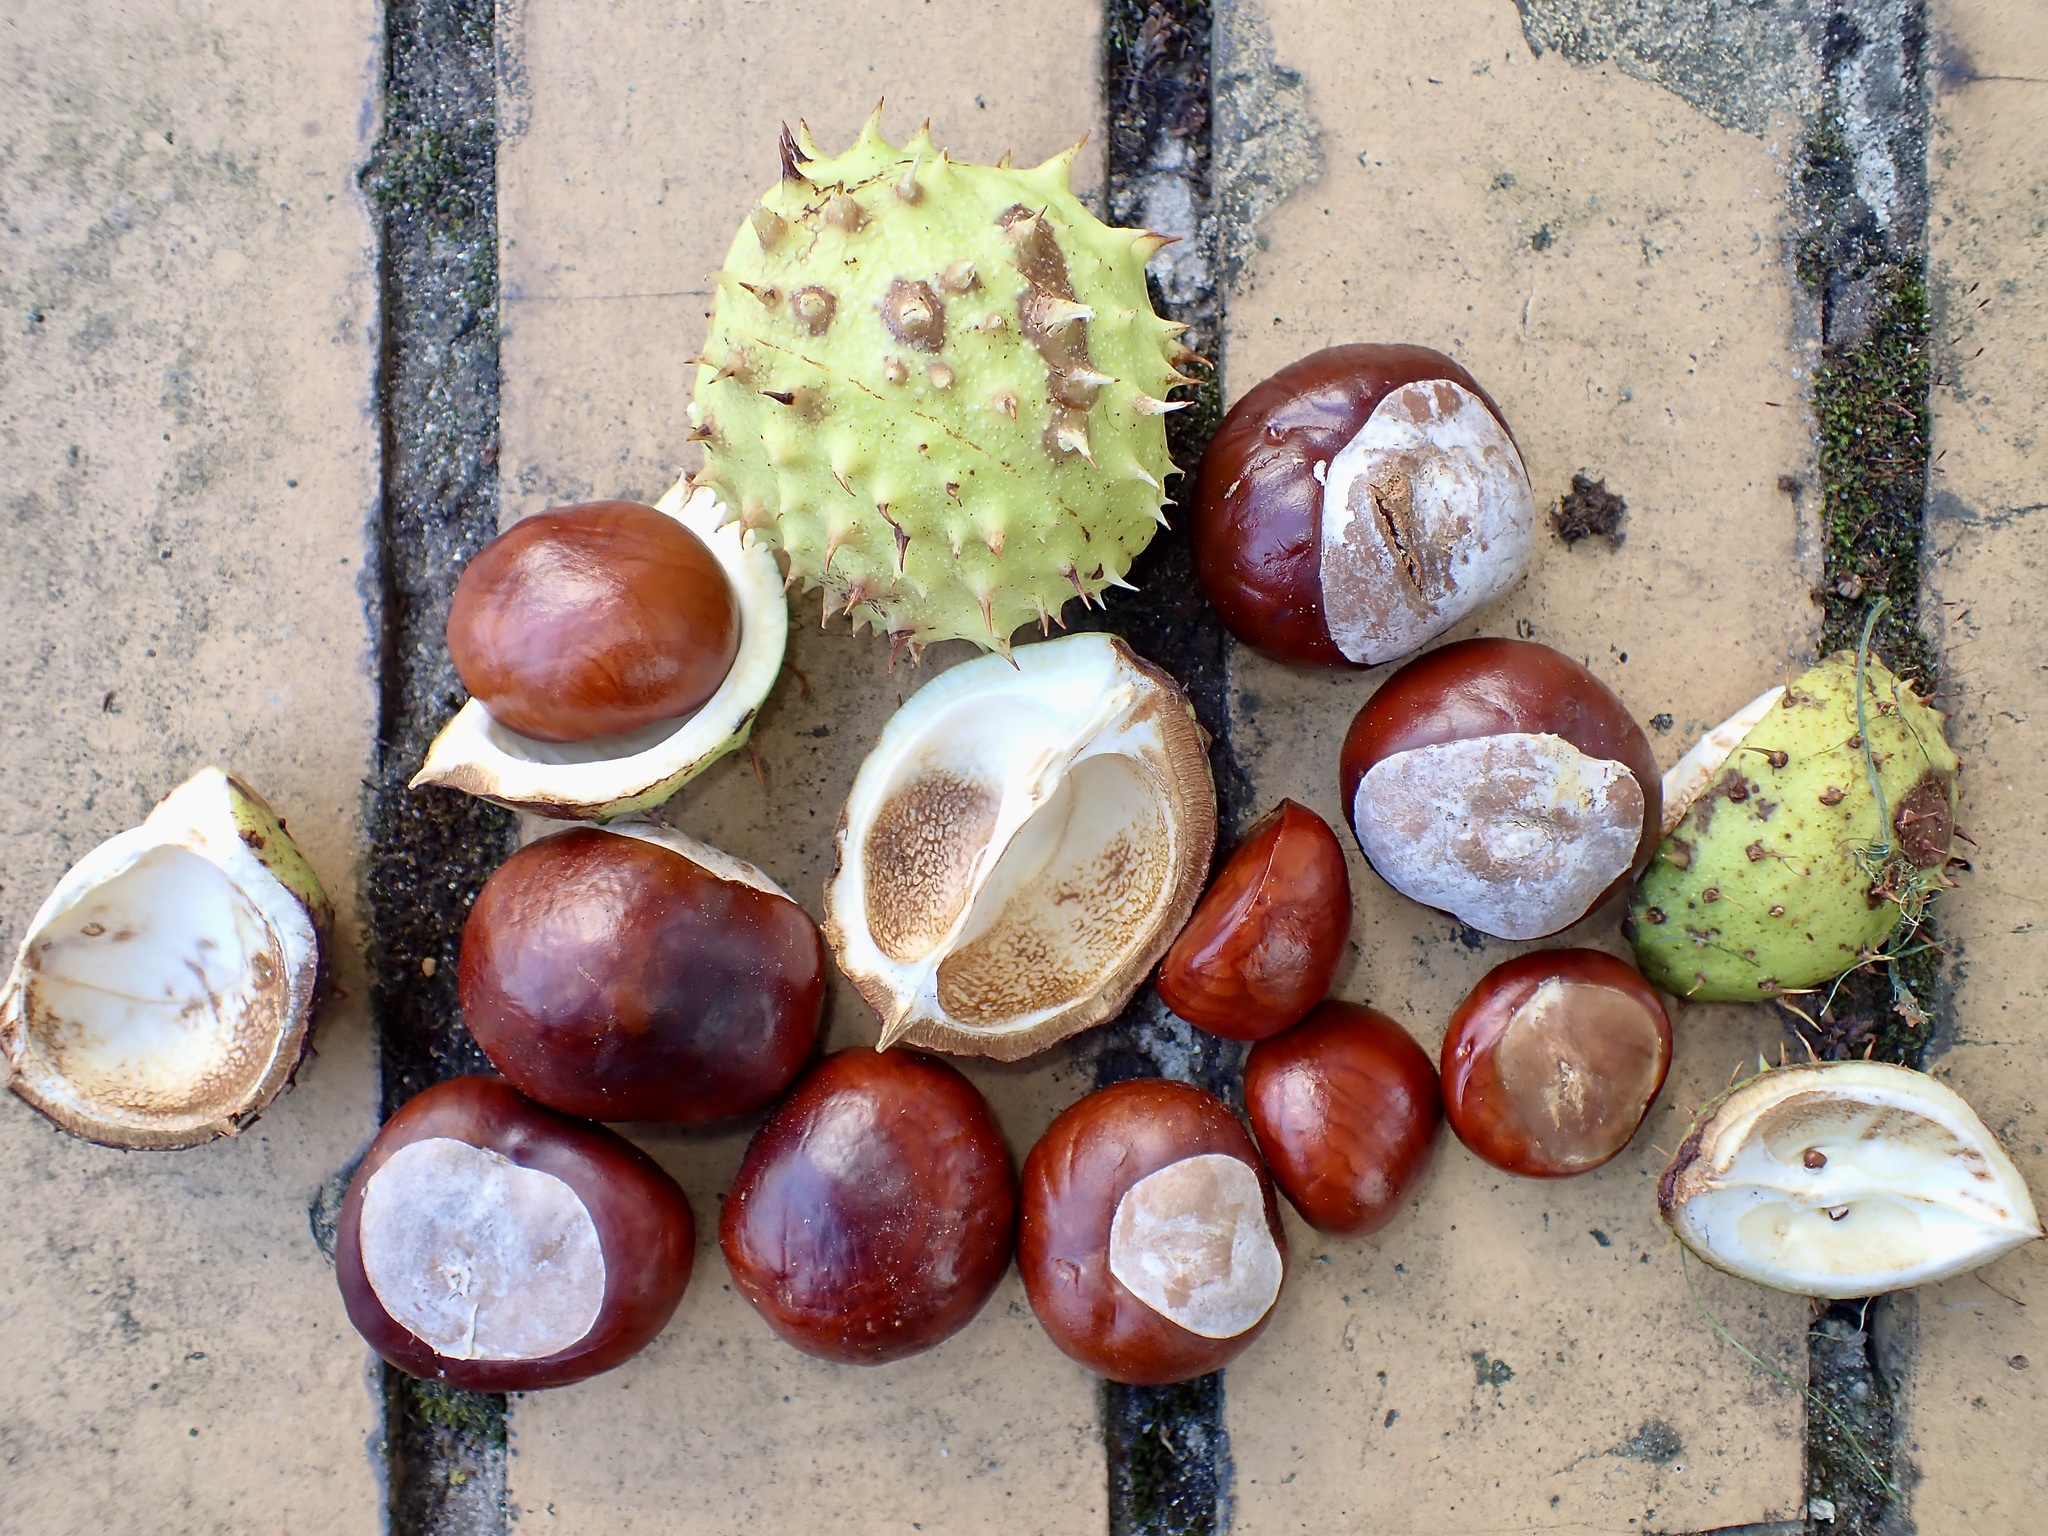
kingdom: Plantae
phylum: Tracheophyta
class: Magnoliopsida
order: Sapindales
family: Sapindaceae
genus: Aesculus
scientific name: Aesculus hippocastanum
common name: Horse-chestnut
